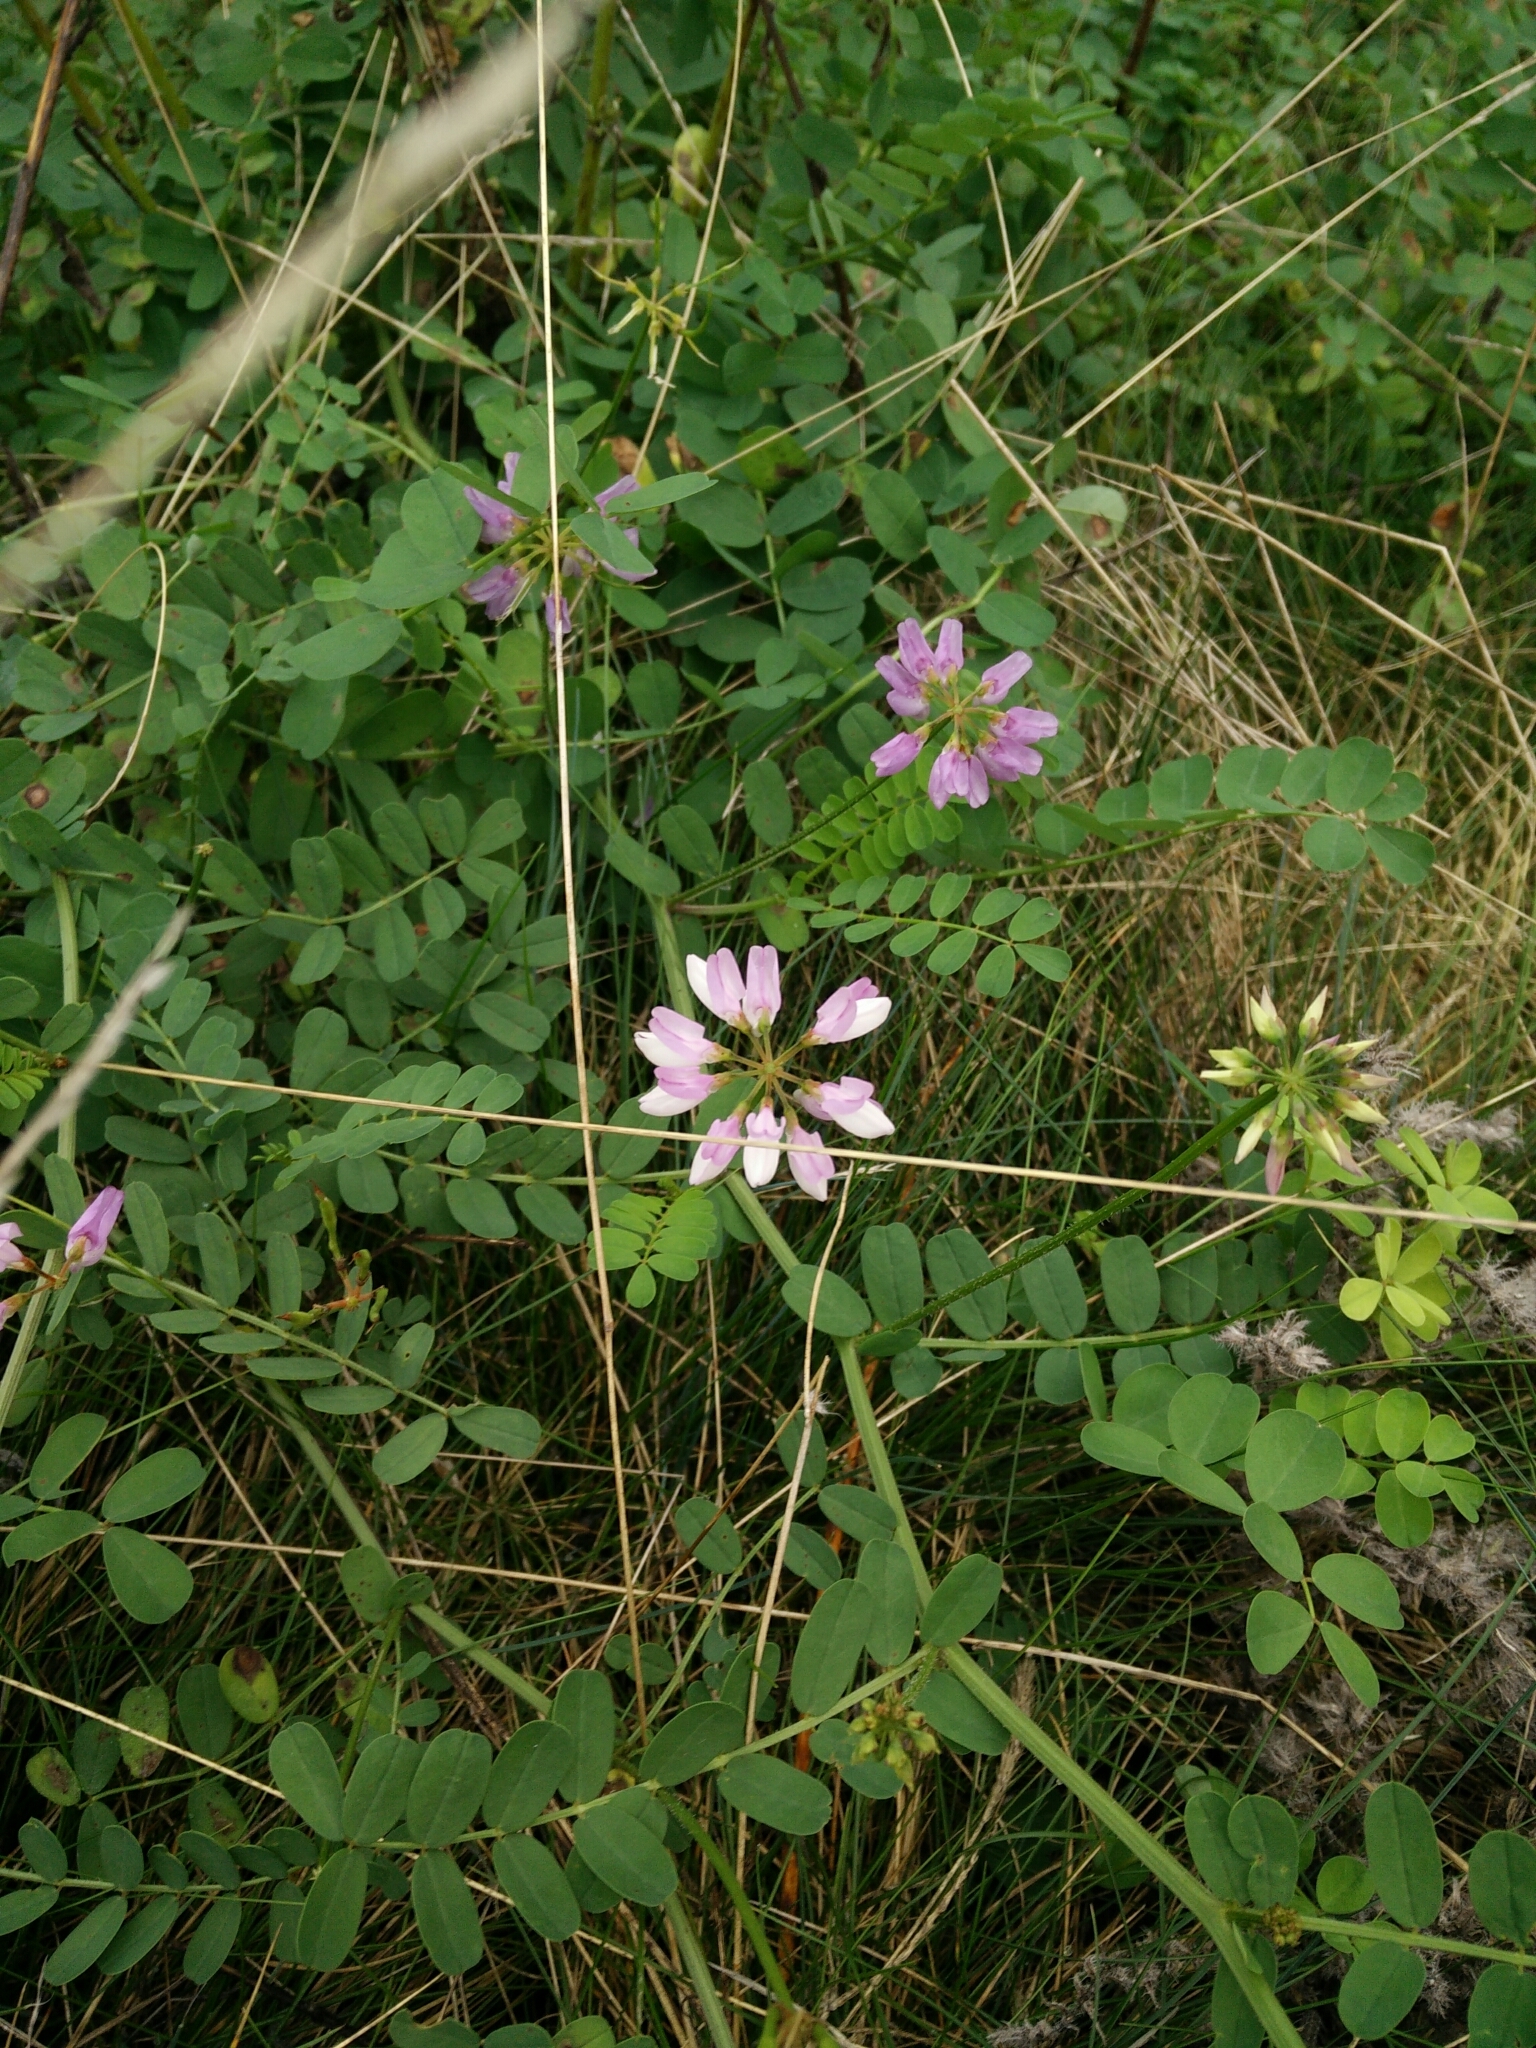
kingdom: Plantae
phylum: Tracheophyta
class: Magnoliopsida
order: Fabales
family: Fabaceae
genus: Coronilla
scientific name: Coronilla varia
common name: Crownvetch
